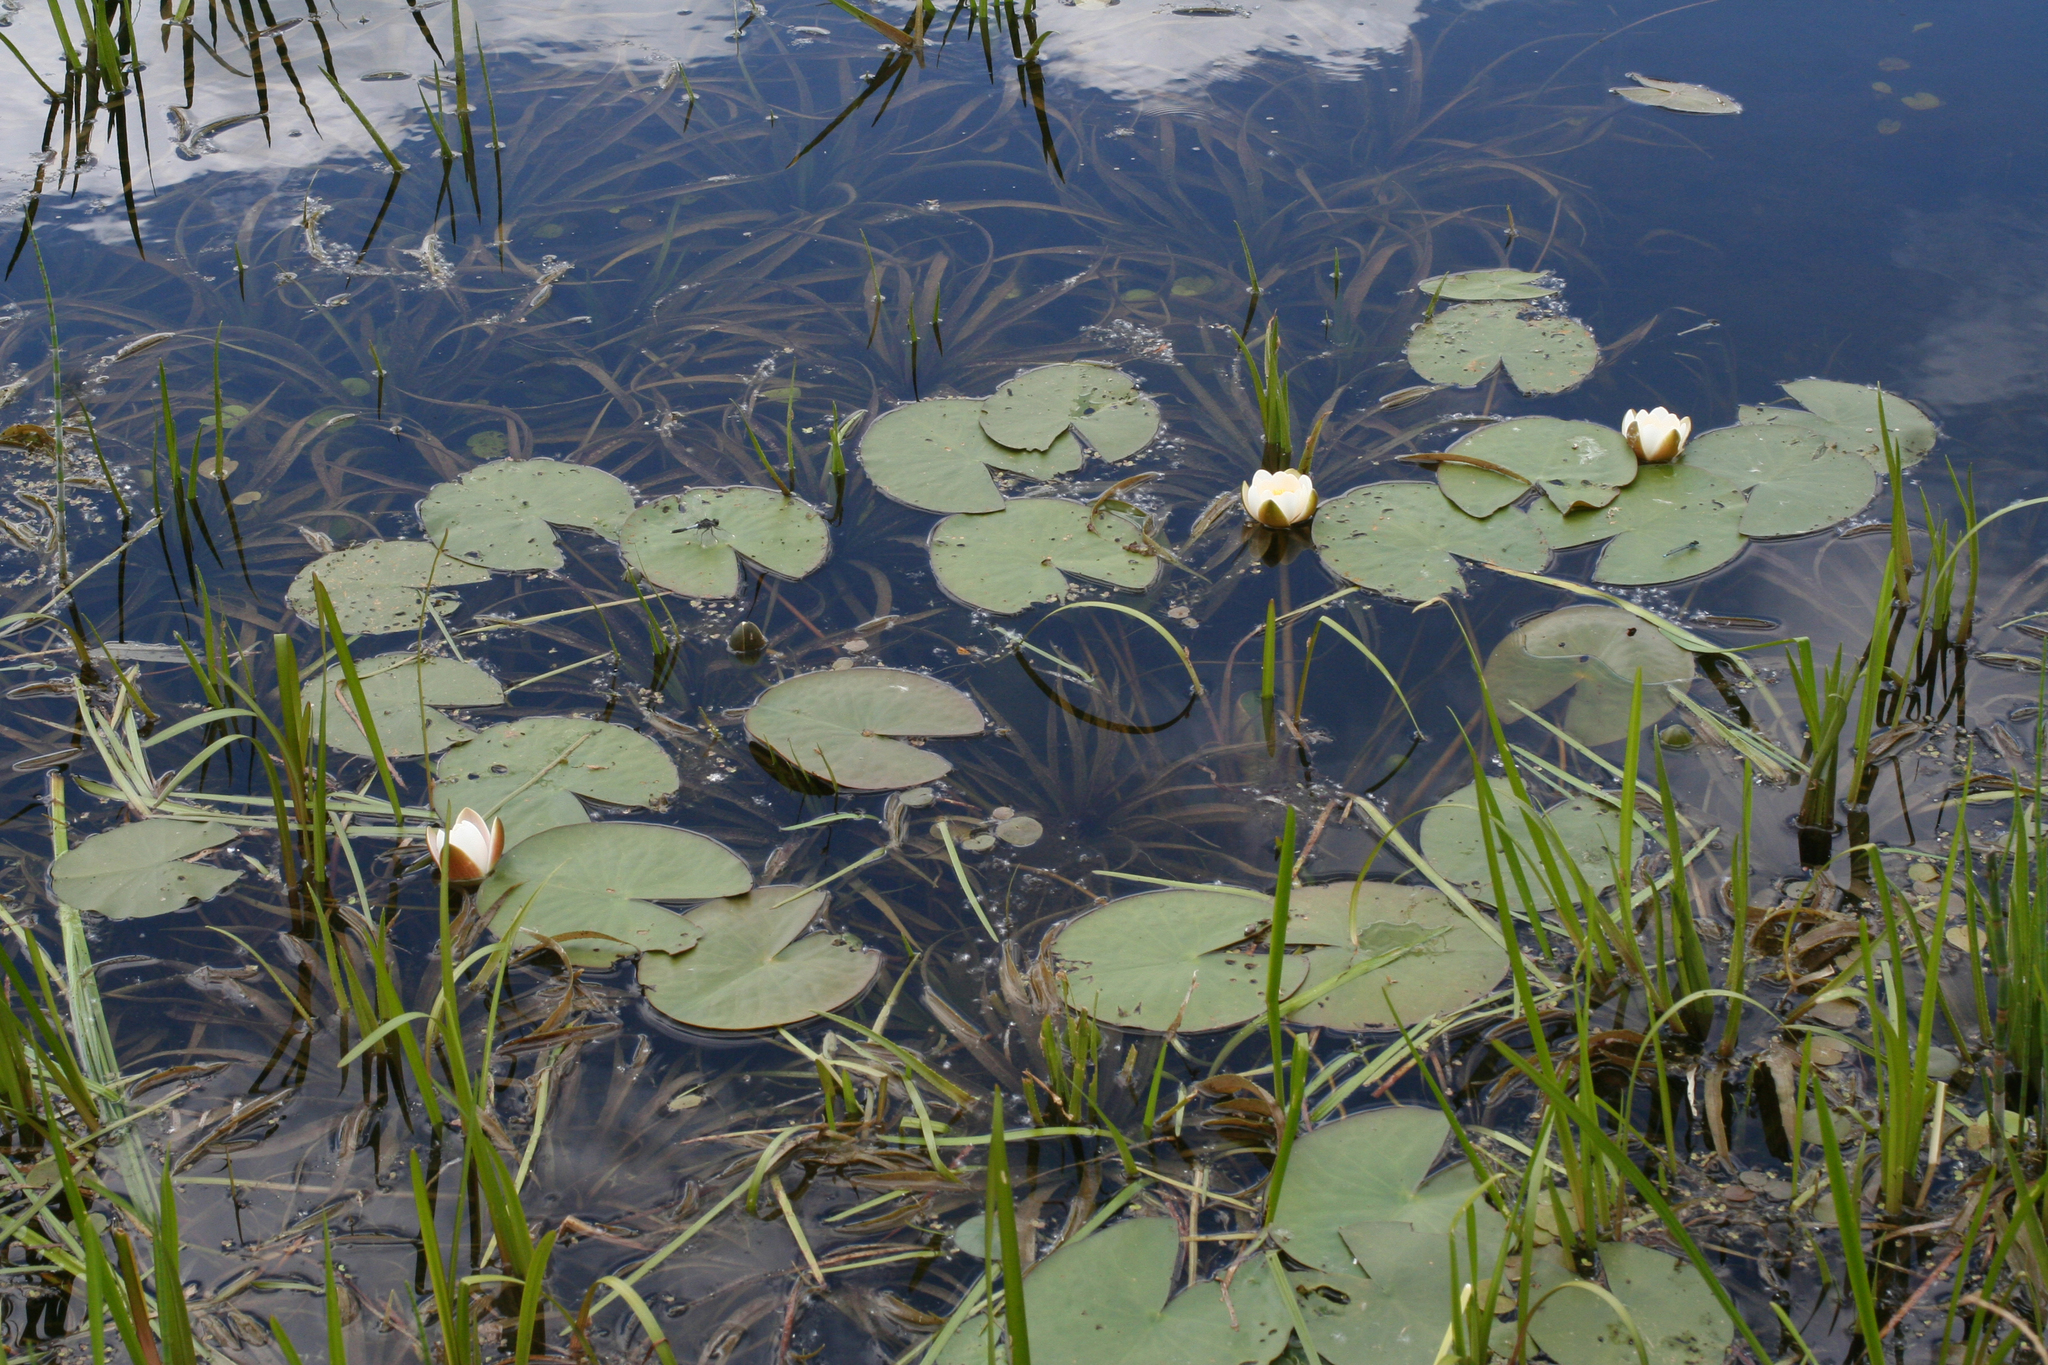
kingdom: Plantae
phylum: Tracheophyta
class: Magnoliopsida
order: Nymphaeales
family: Nymphaeaceae
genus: Nymphaea
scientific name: Nymphaea tetragona
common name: Pygmy water-lily
